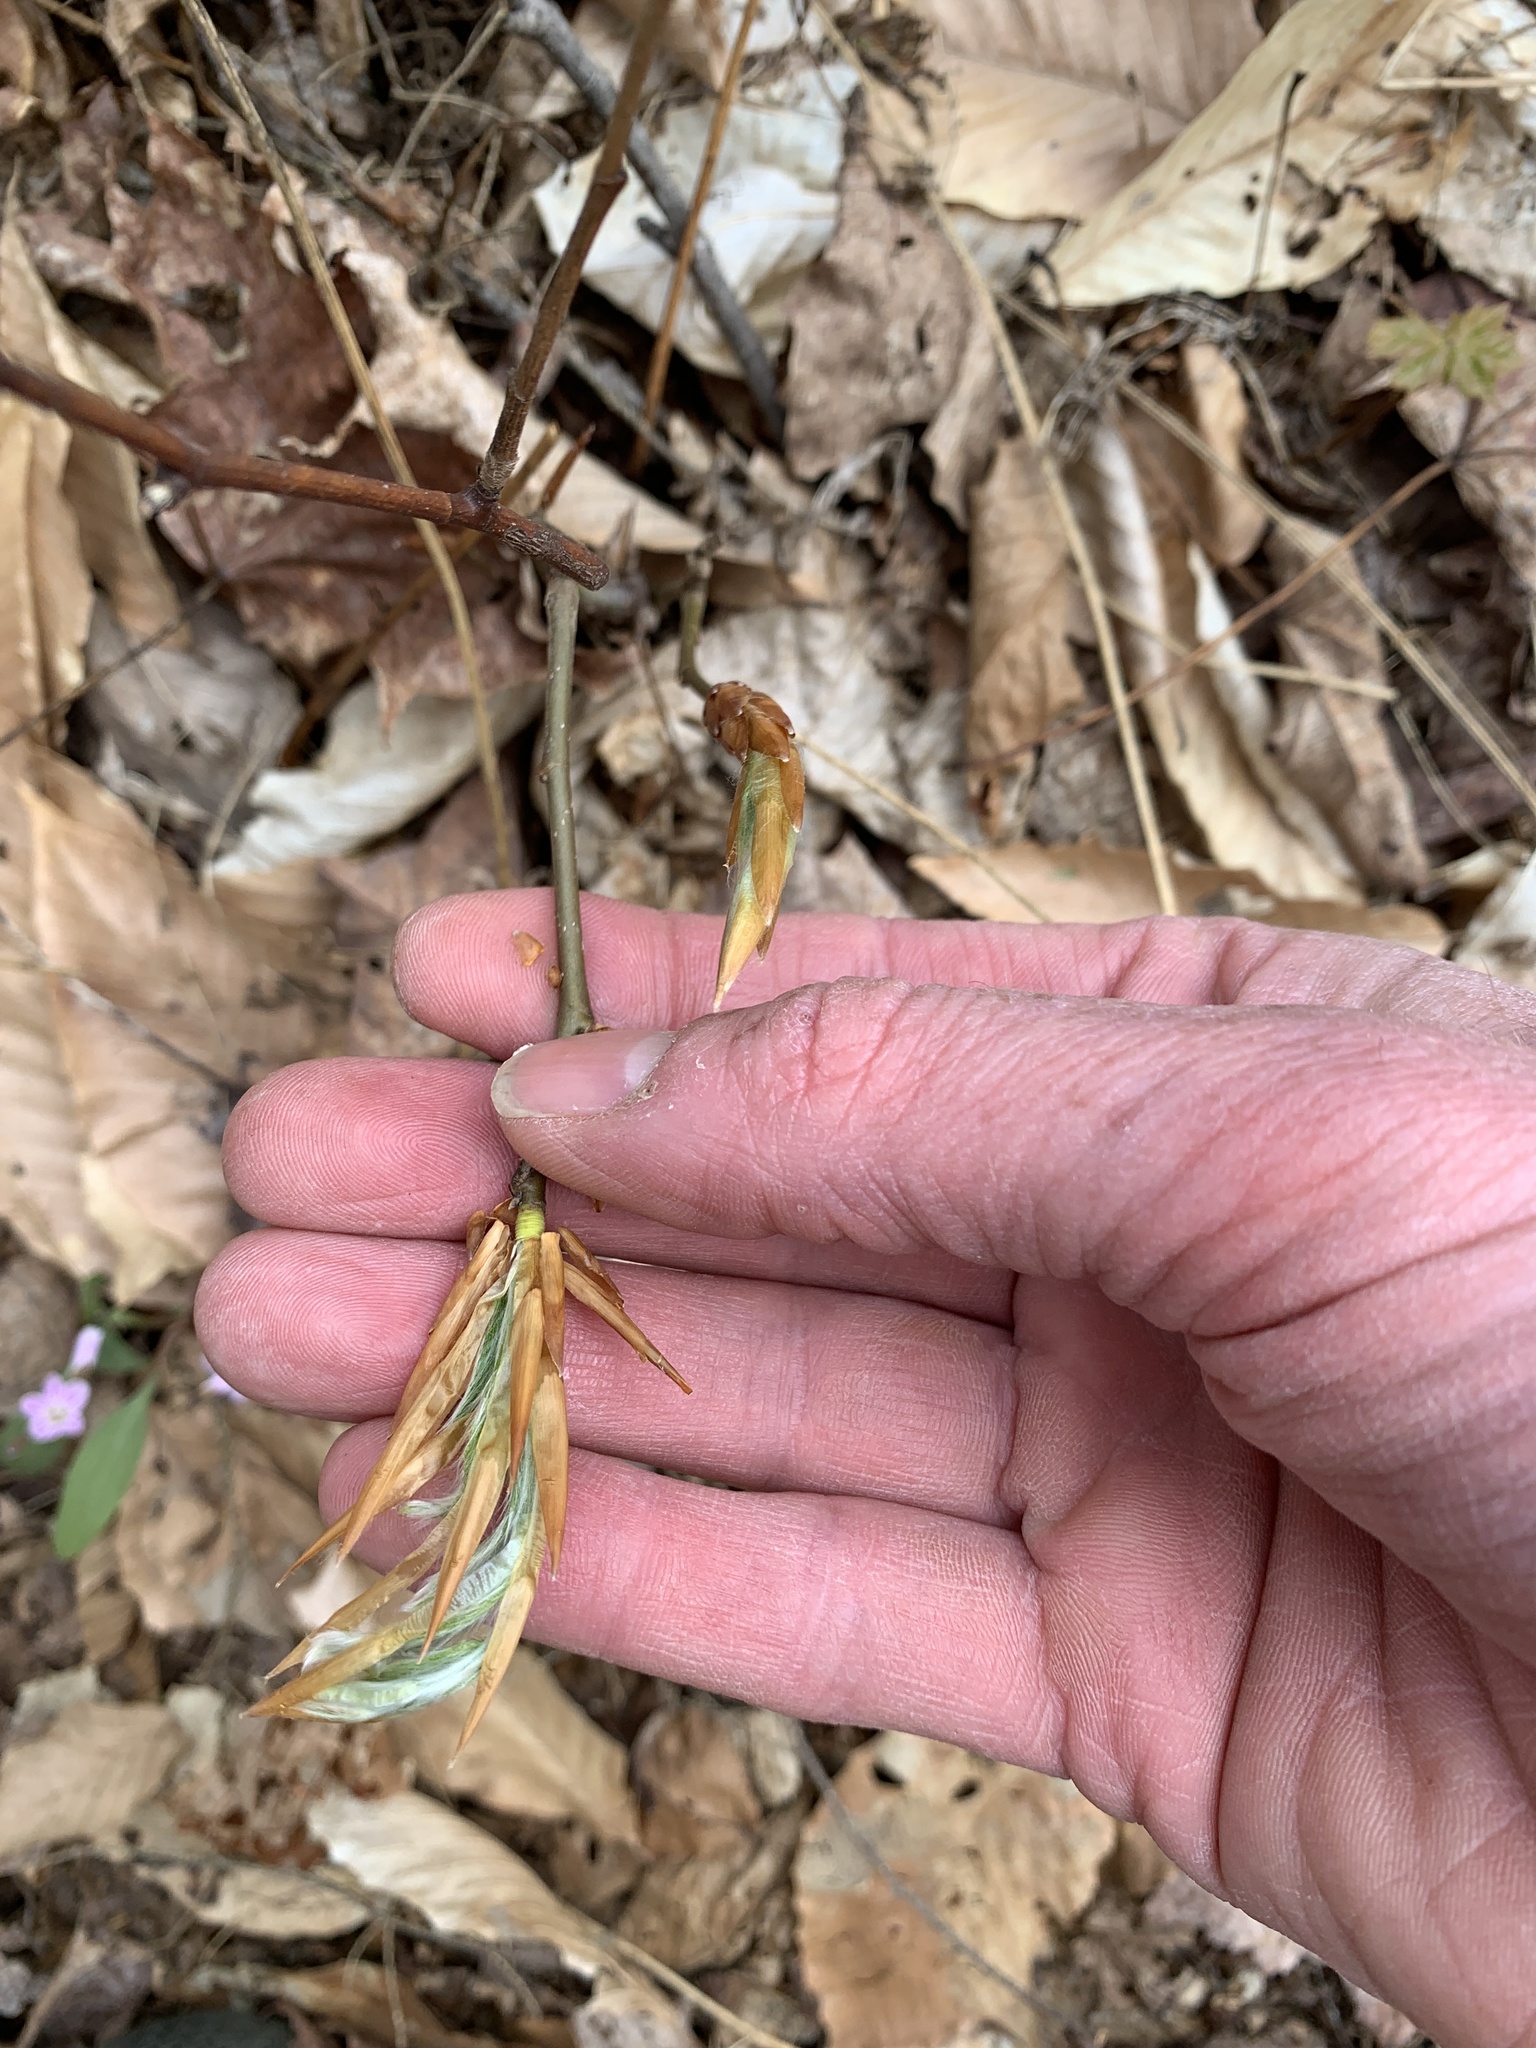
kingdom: Plantae
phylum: Tracheophyta
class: Magnoliopsida
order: Fagales
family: Fagaceae
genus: Fagus
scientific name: Fagus grandifolia
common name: American beech
